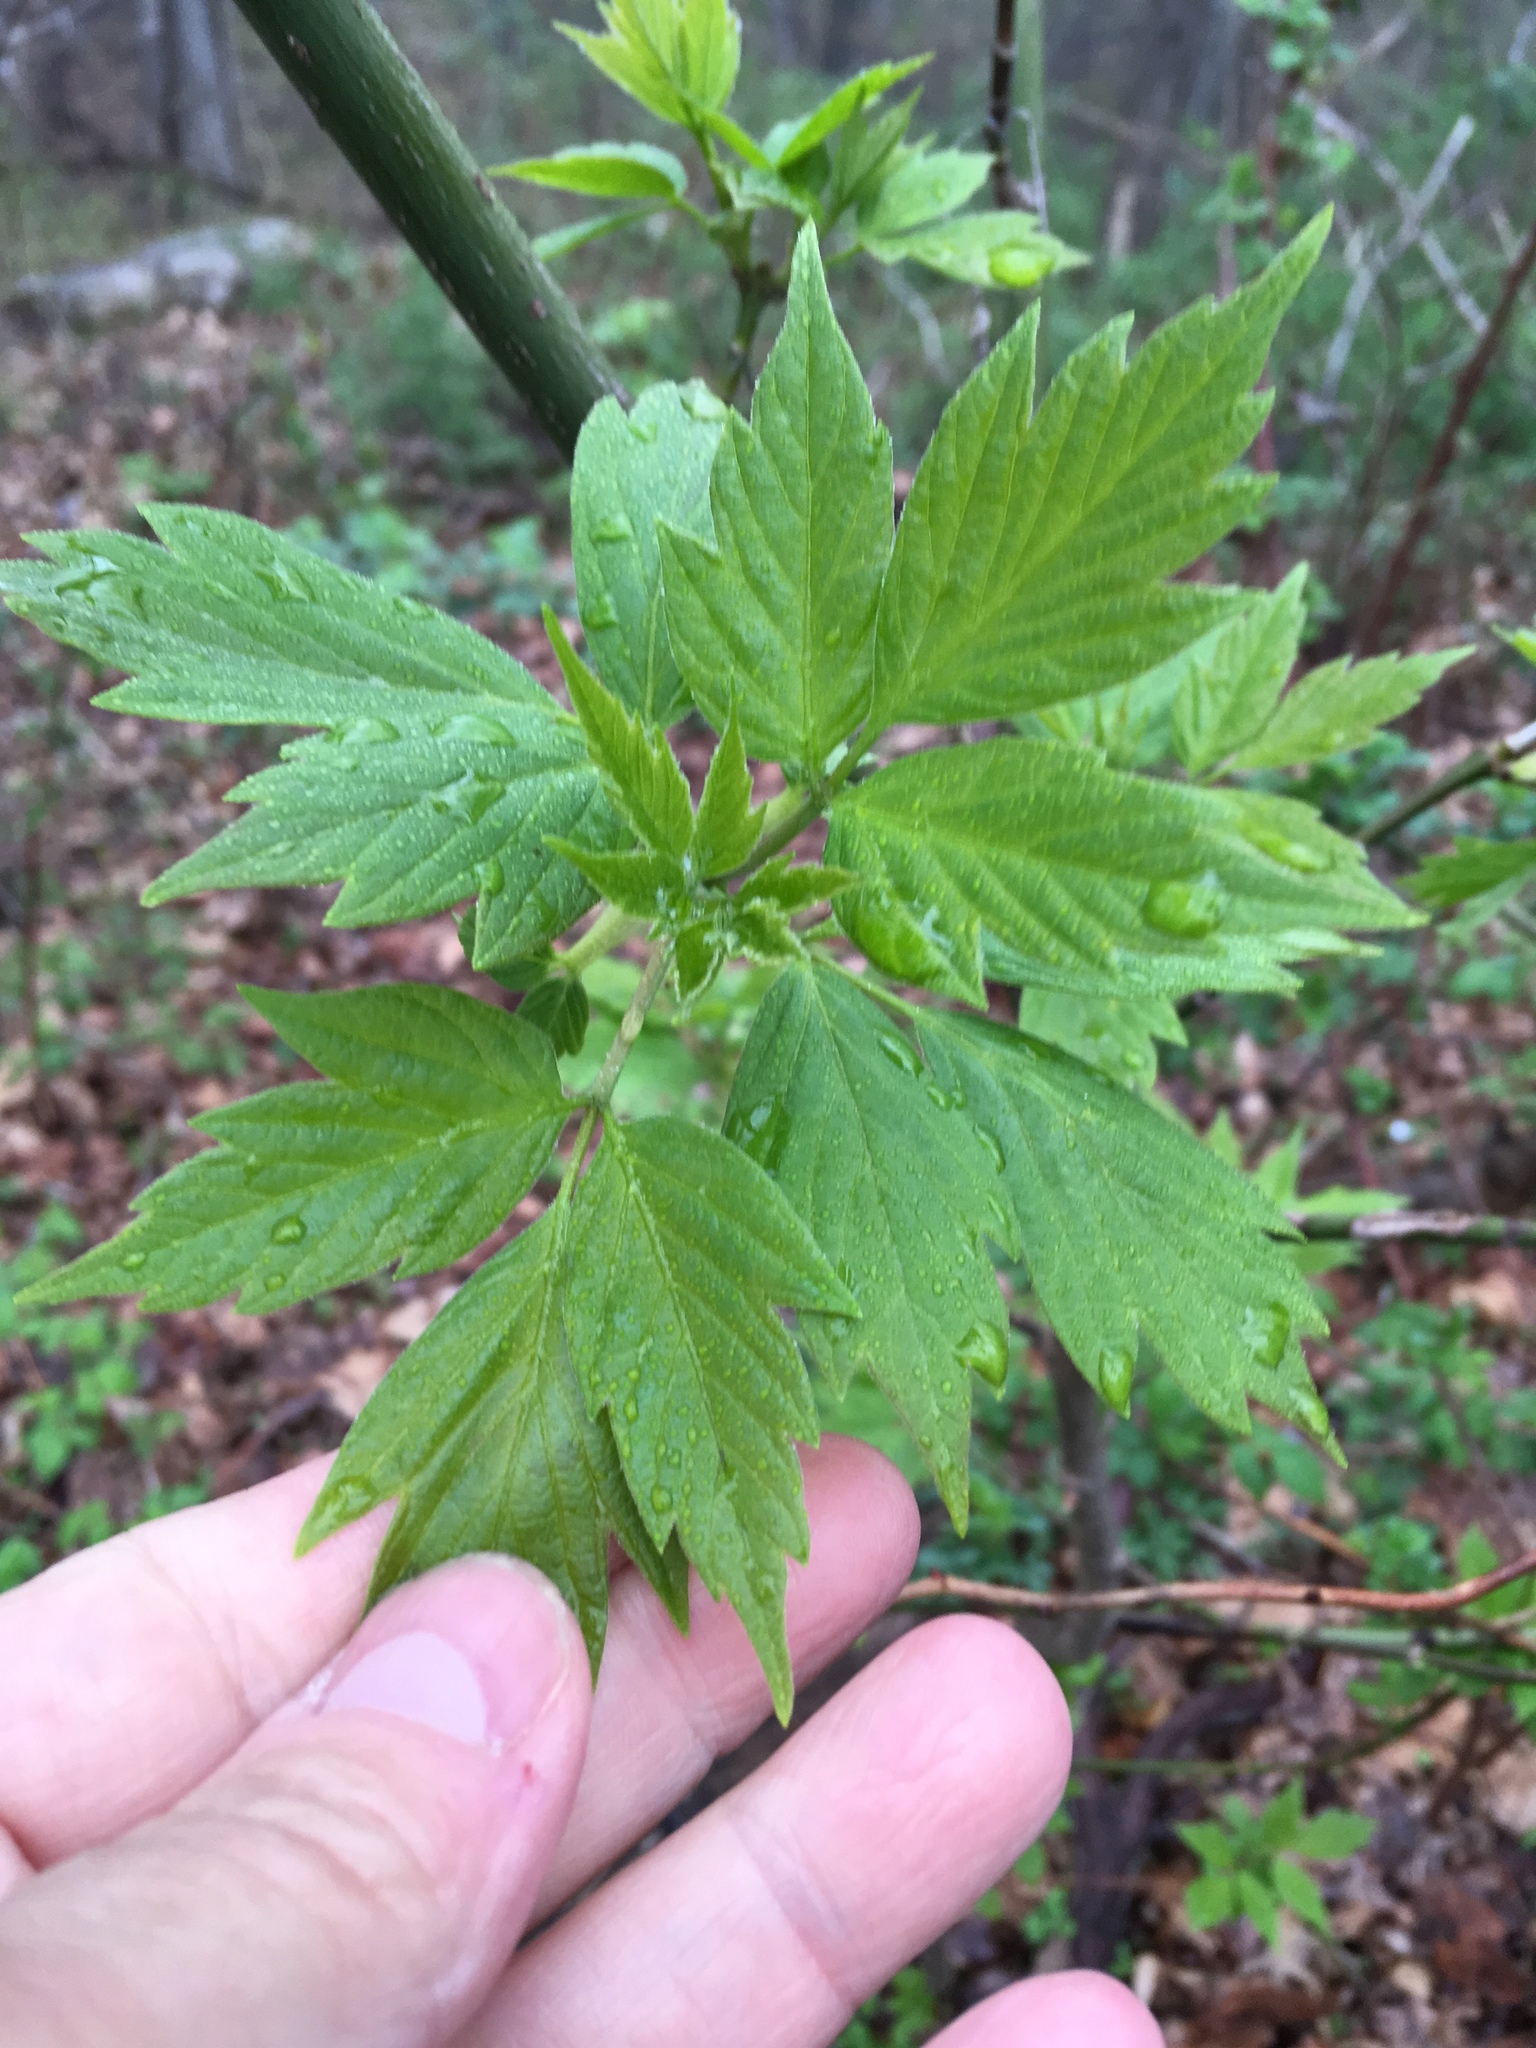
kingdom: Plantae
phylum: Tracheophyta
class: Magnoliopsida
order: Sapindales
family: Sapindaceae
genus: Acer
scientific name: Acer negundo
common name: Ashleaf maple
